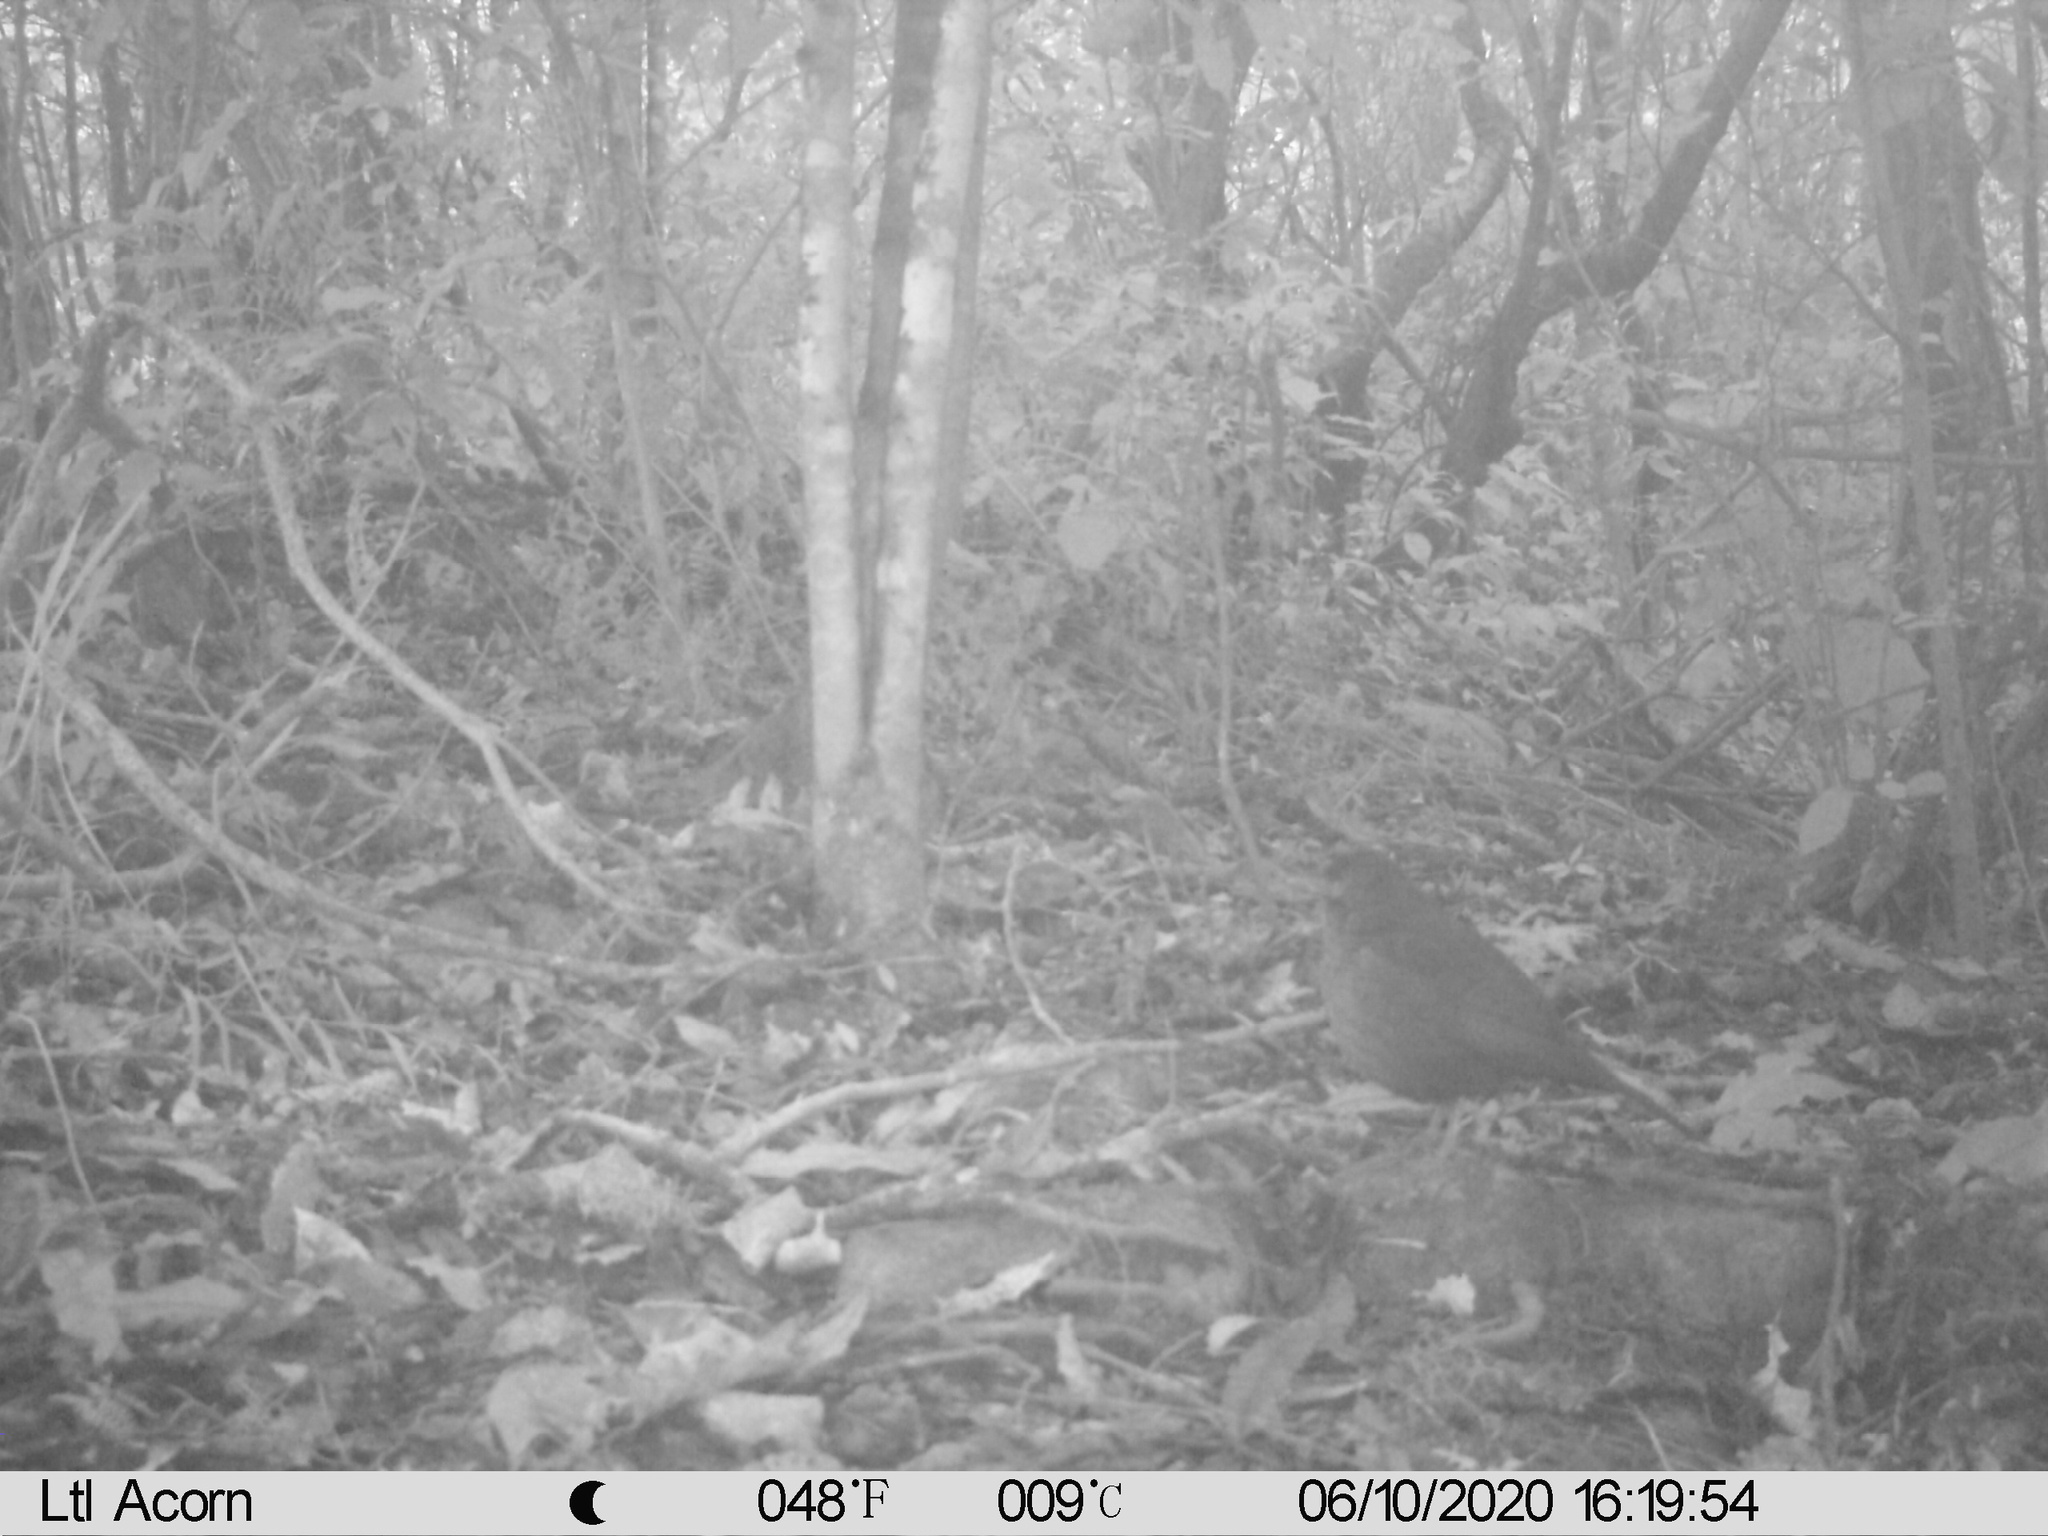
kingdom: Animalia
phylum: Chordata
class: Aves
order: Passeriformes
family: Turdidae
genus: Turdus
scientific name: Turdus merula
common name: Common blackbird
